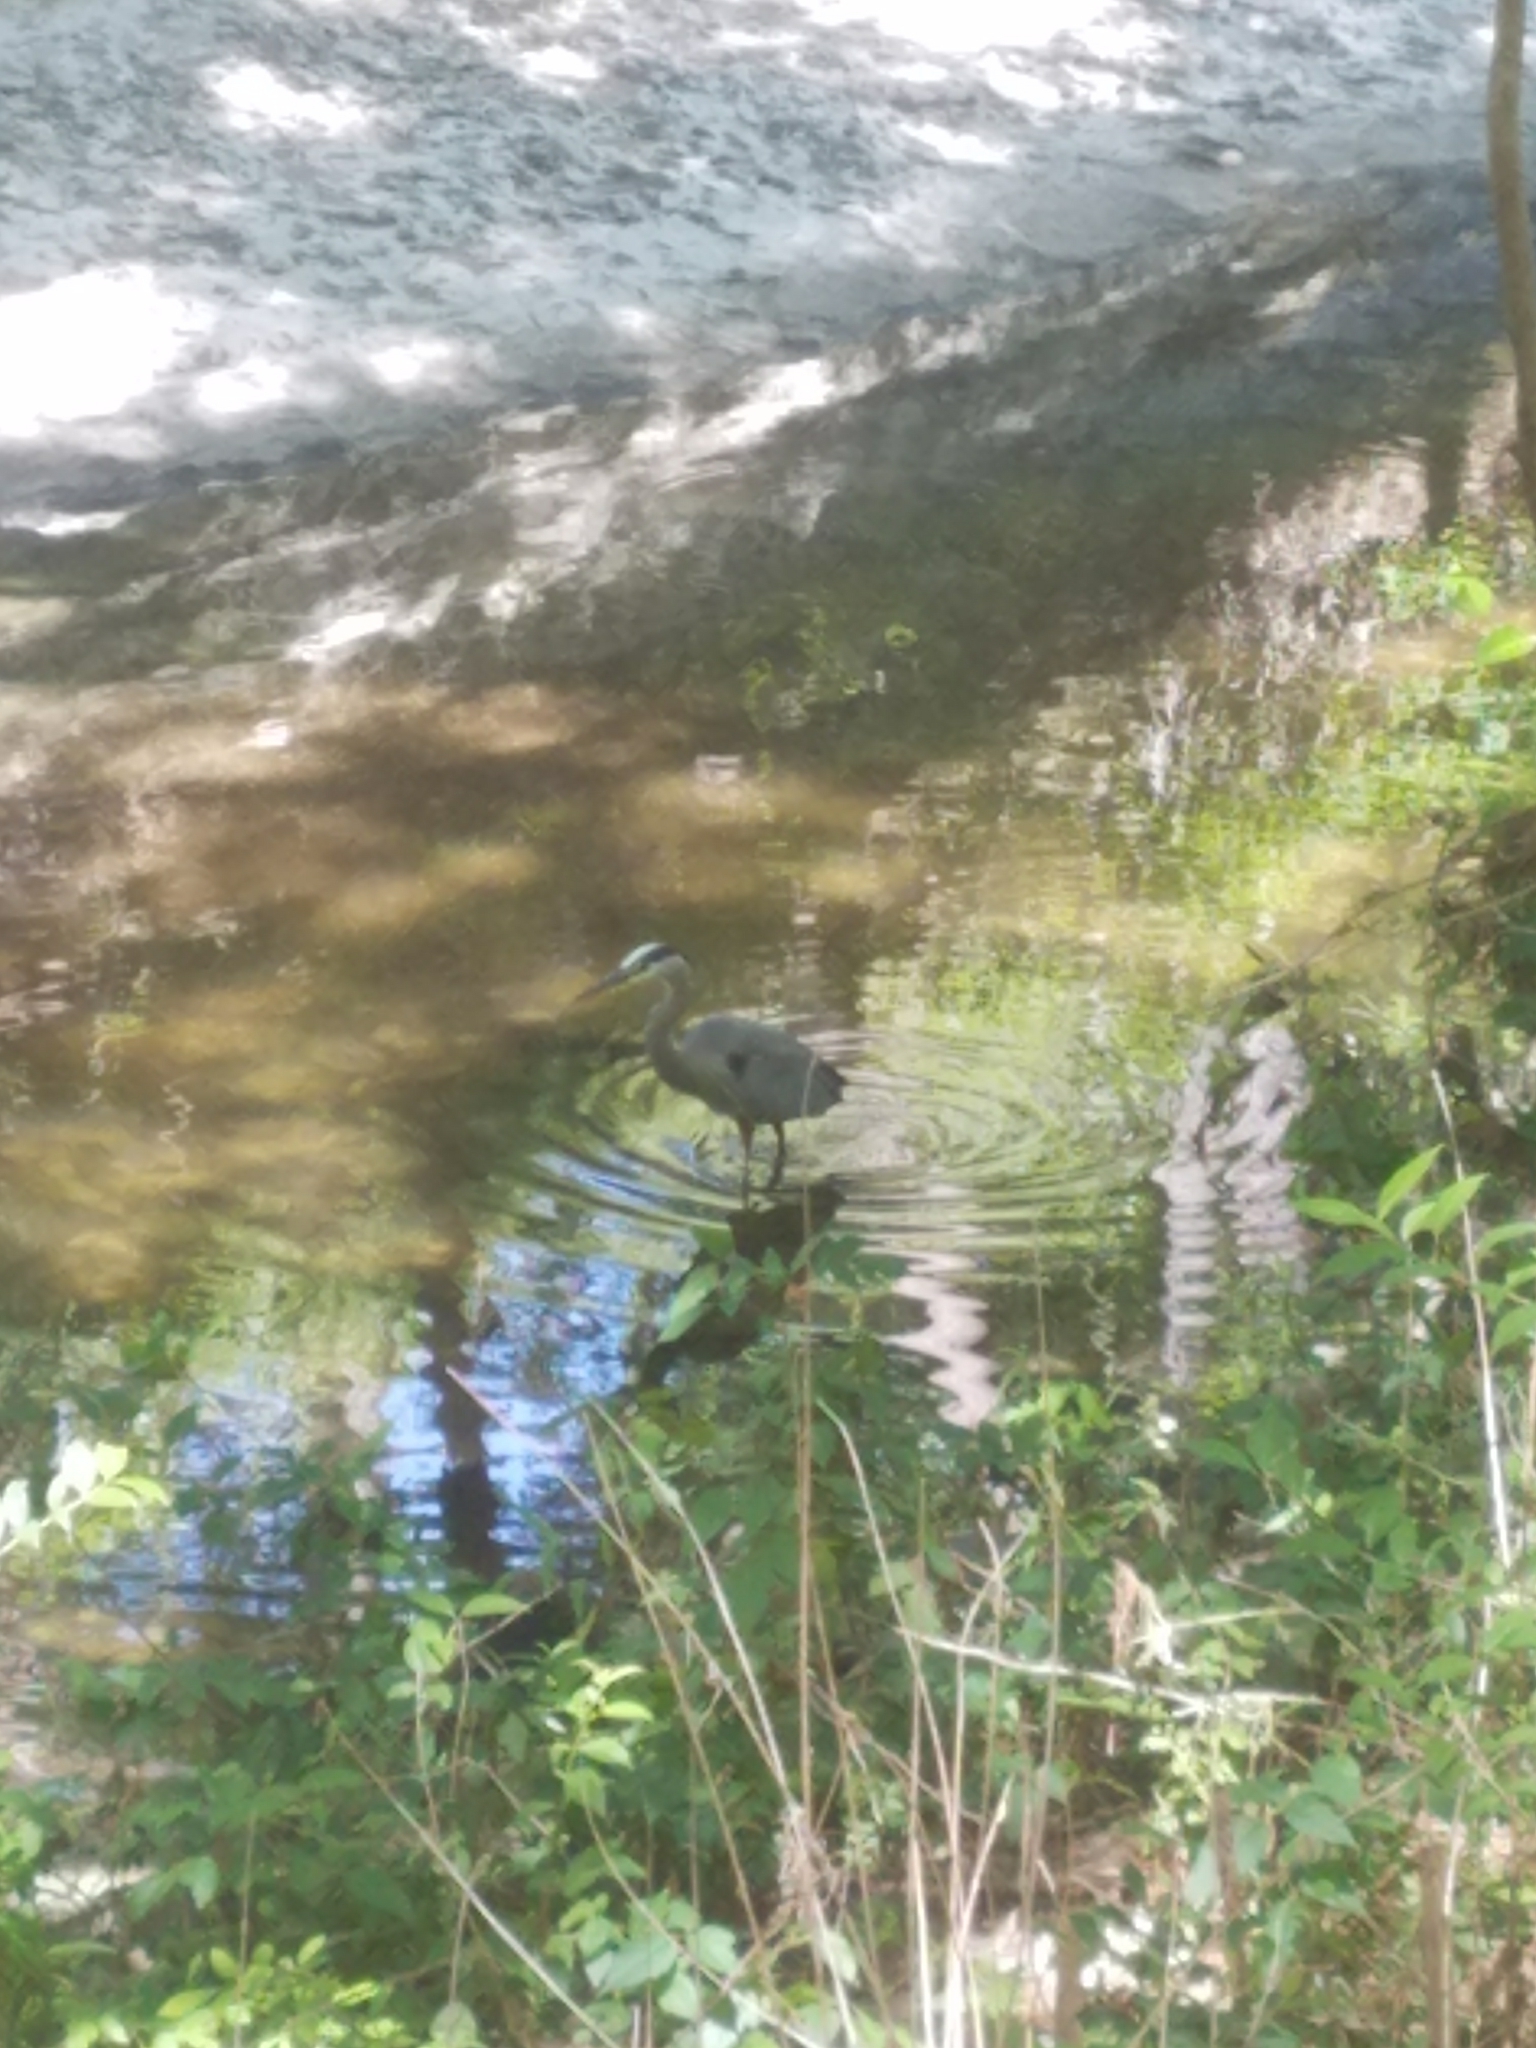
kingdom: Animalia
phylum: Chordata
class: Aves
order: Pelecaniformes
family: Ardeidae
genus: Ardea
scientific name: Ardea herodias
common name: Great blue heron
